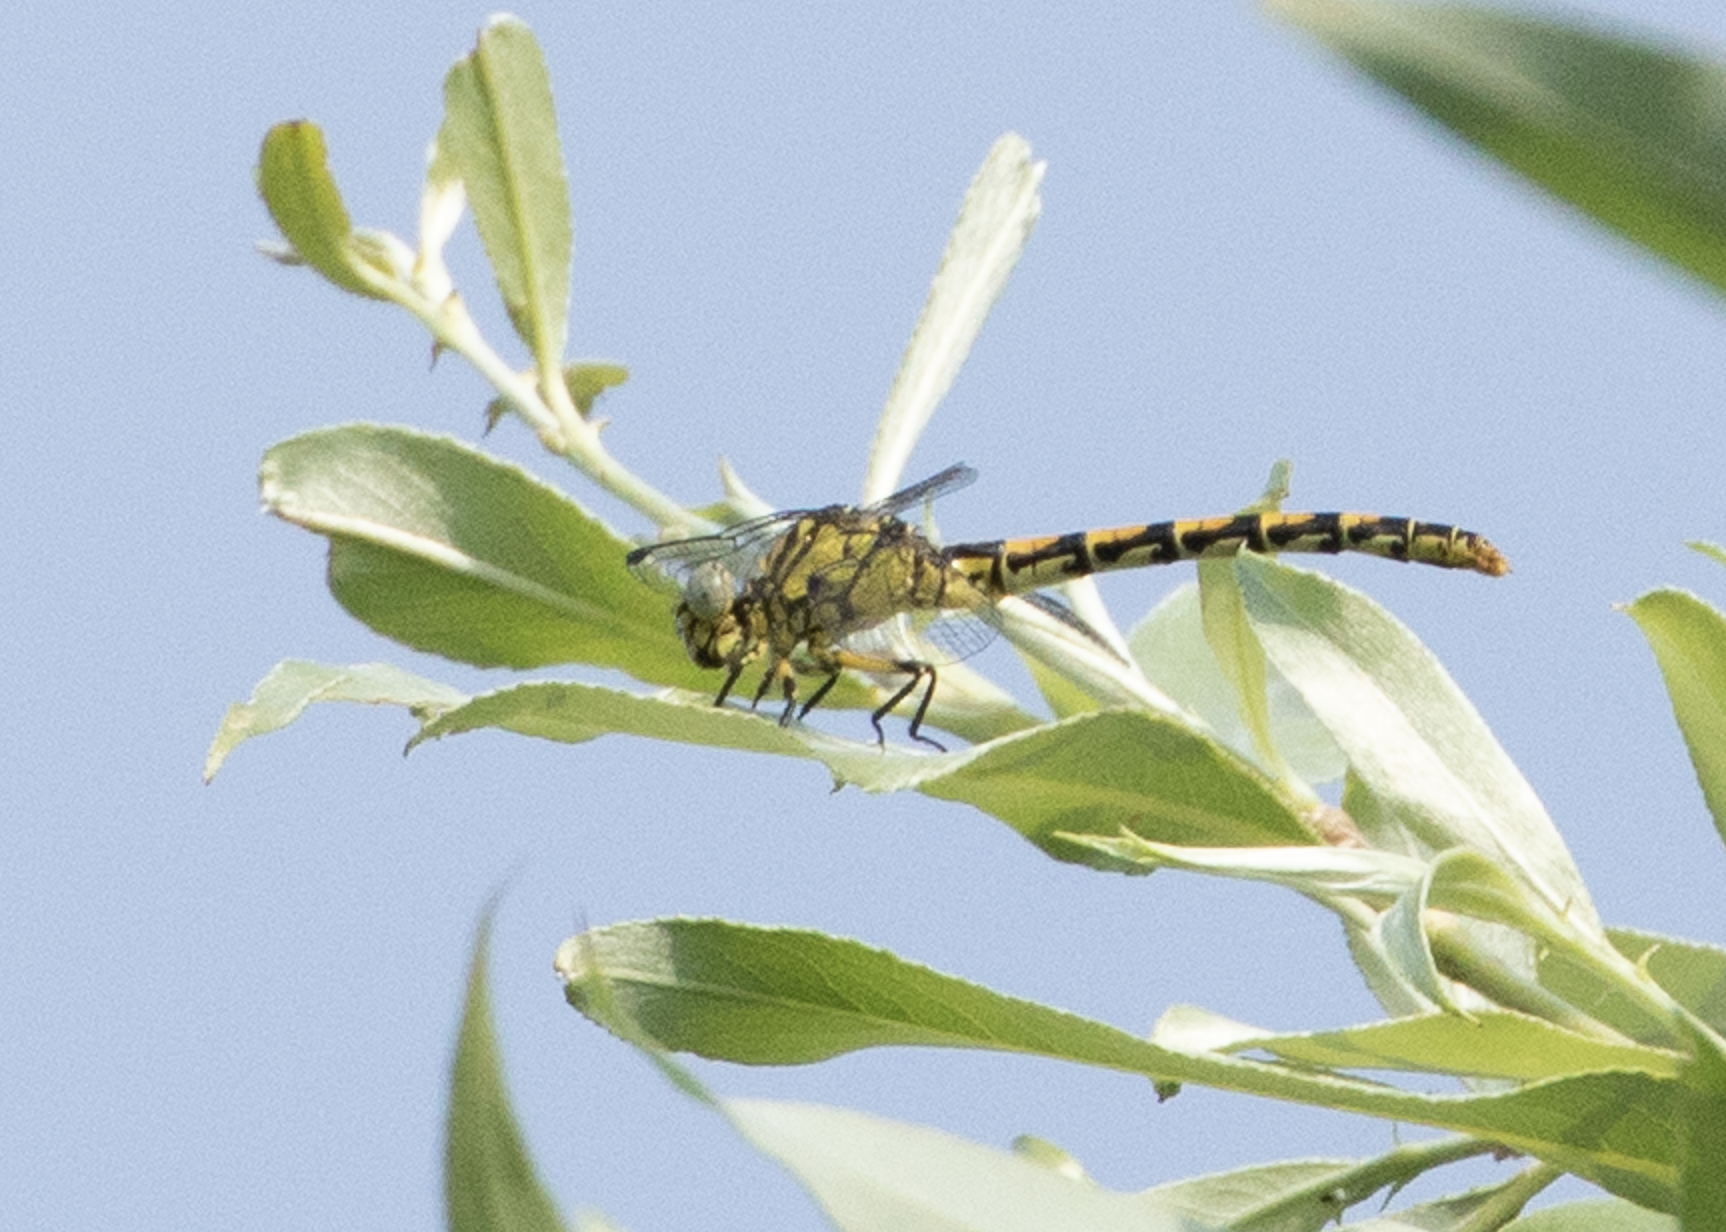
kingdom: Animalia
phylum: Arthropoda
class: Insecta
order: Odonata
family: Gomphidae
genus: Onychogomphus
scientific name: Onychogomphus forcipatus
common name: Small pincertail
